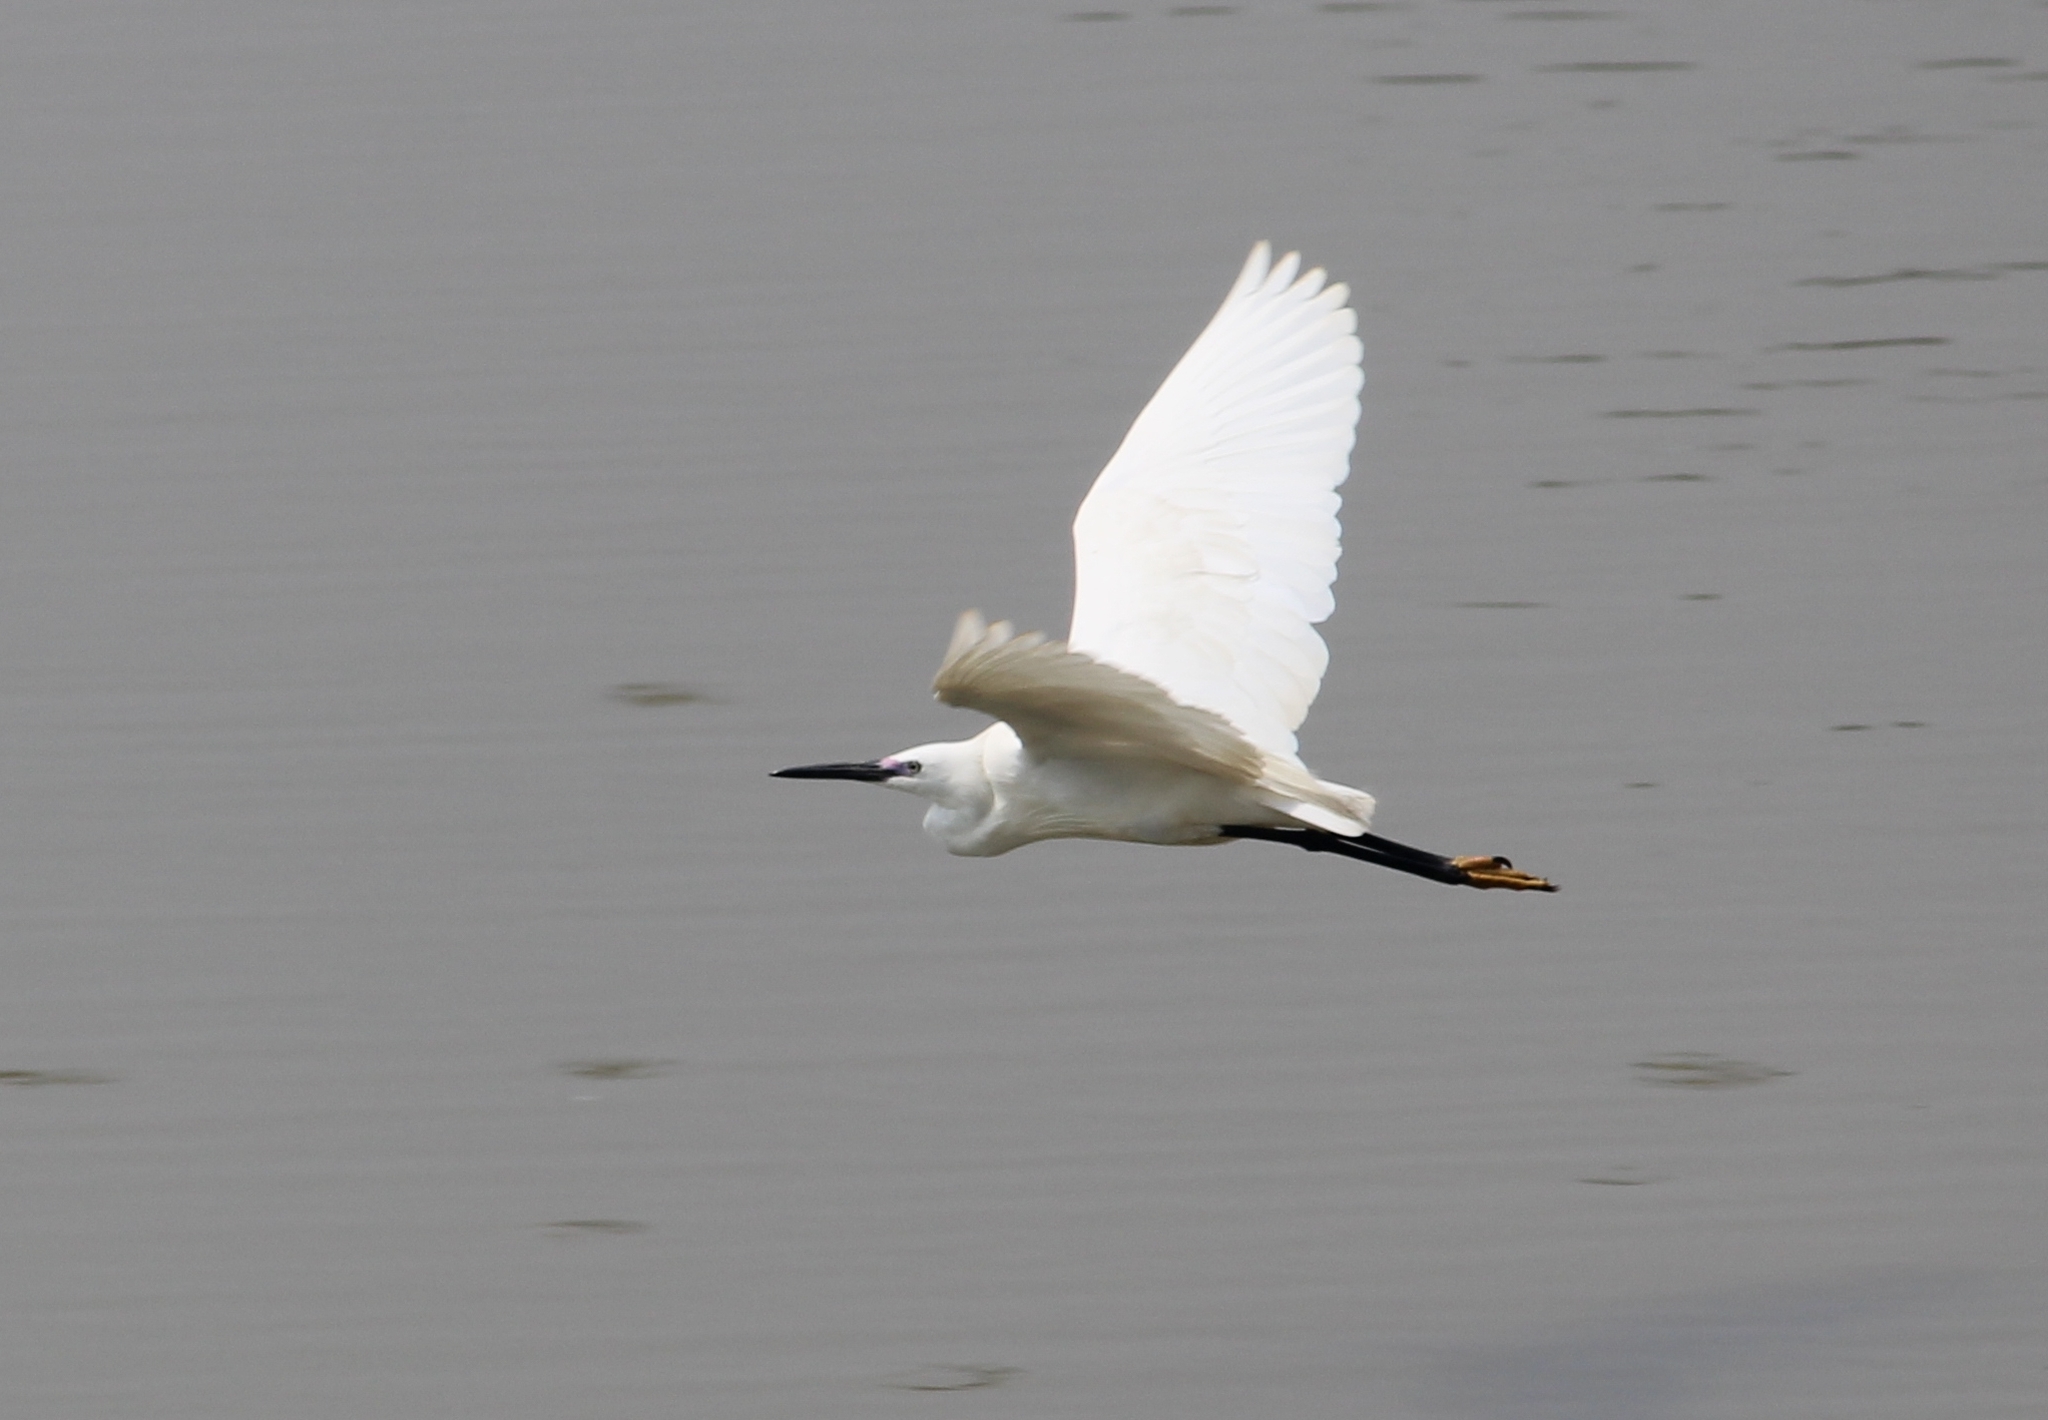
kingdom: Animalia
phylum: Chordata
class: Aves
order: Pelecaniformes
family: Ardeidae
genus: Egretta
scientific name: Egretta garzetta
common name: Little egret
